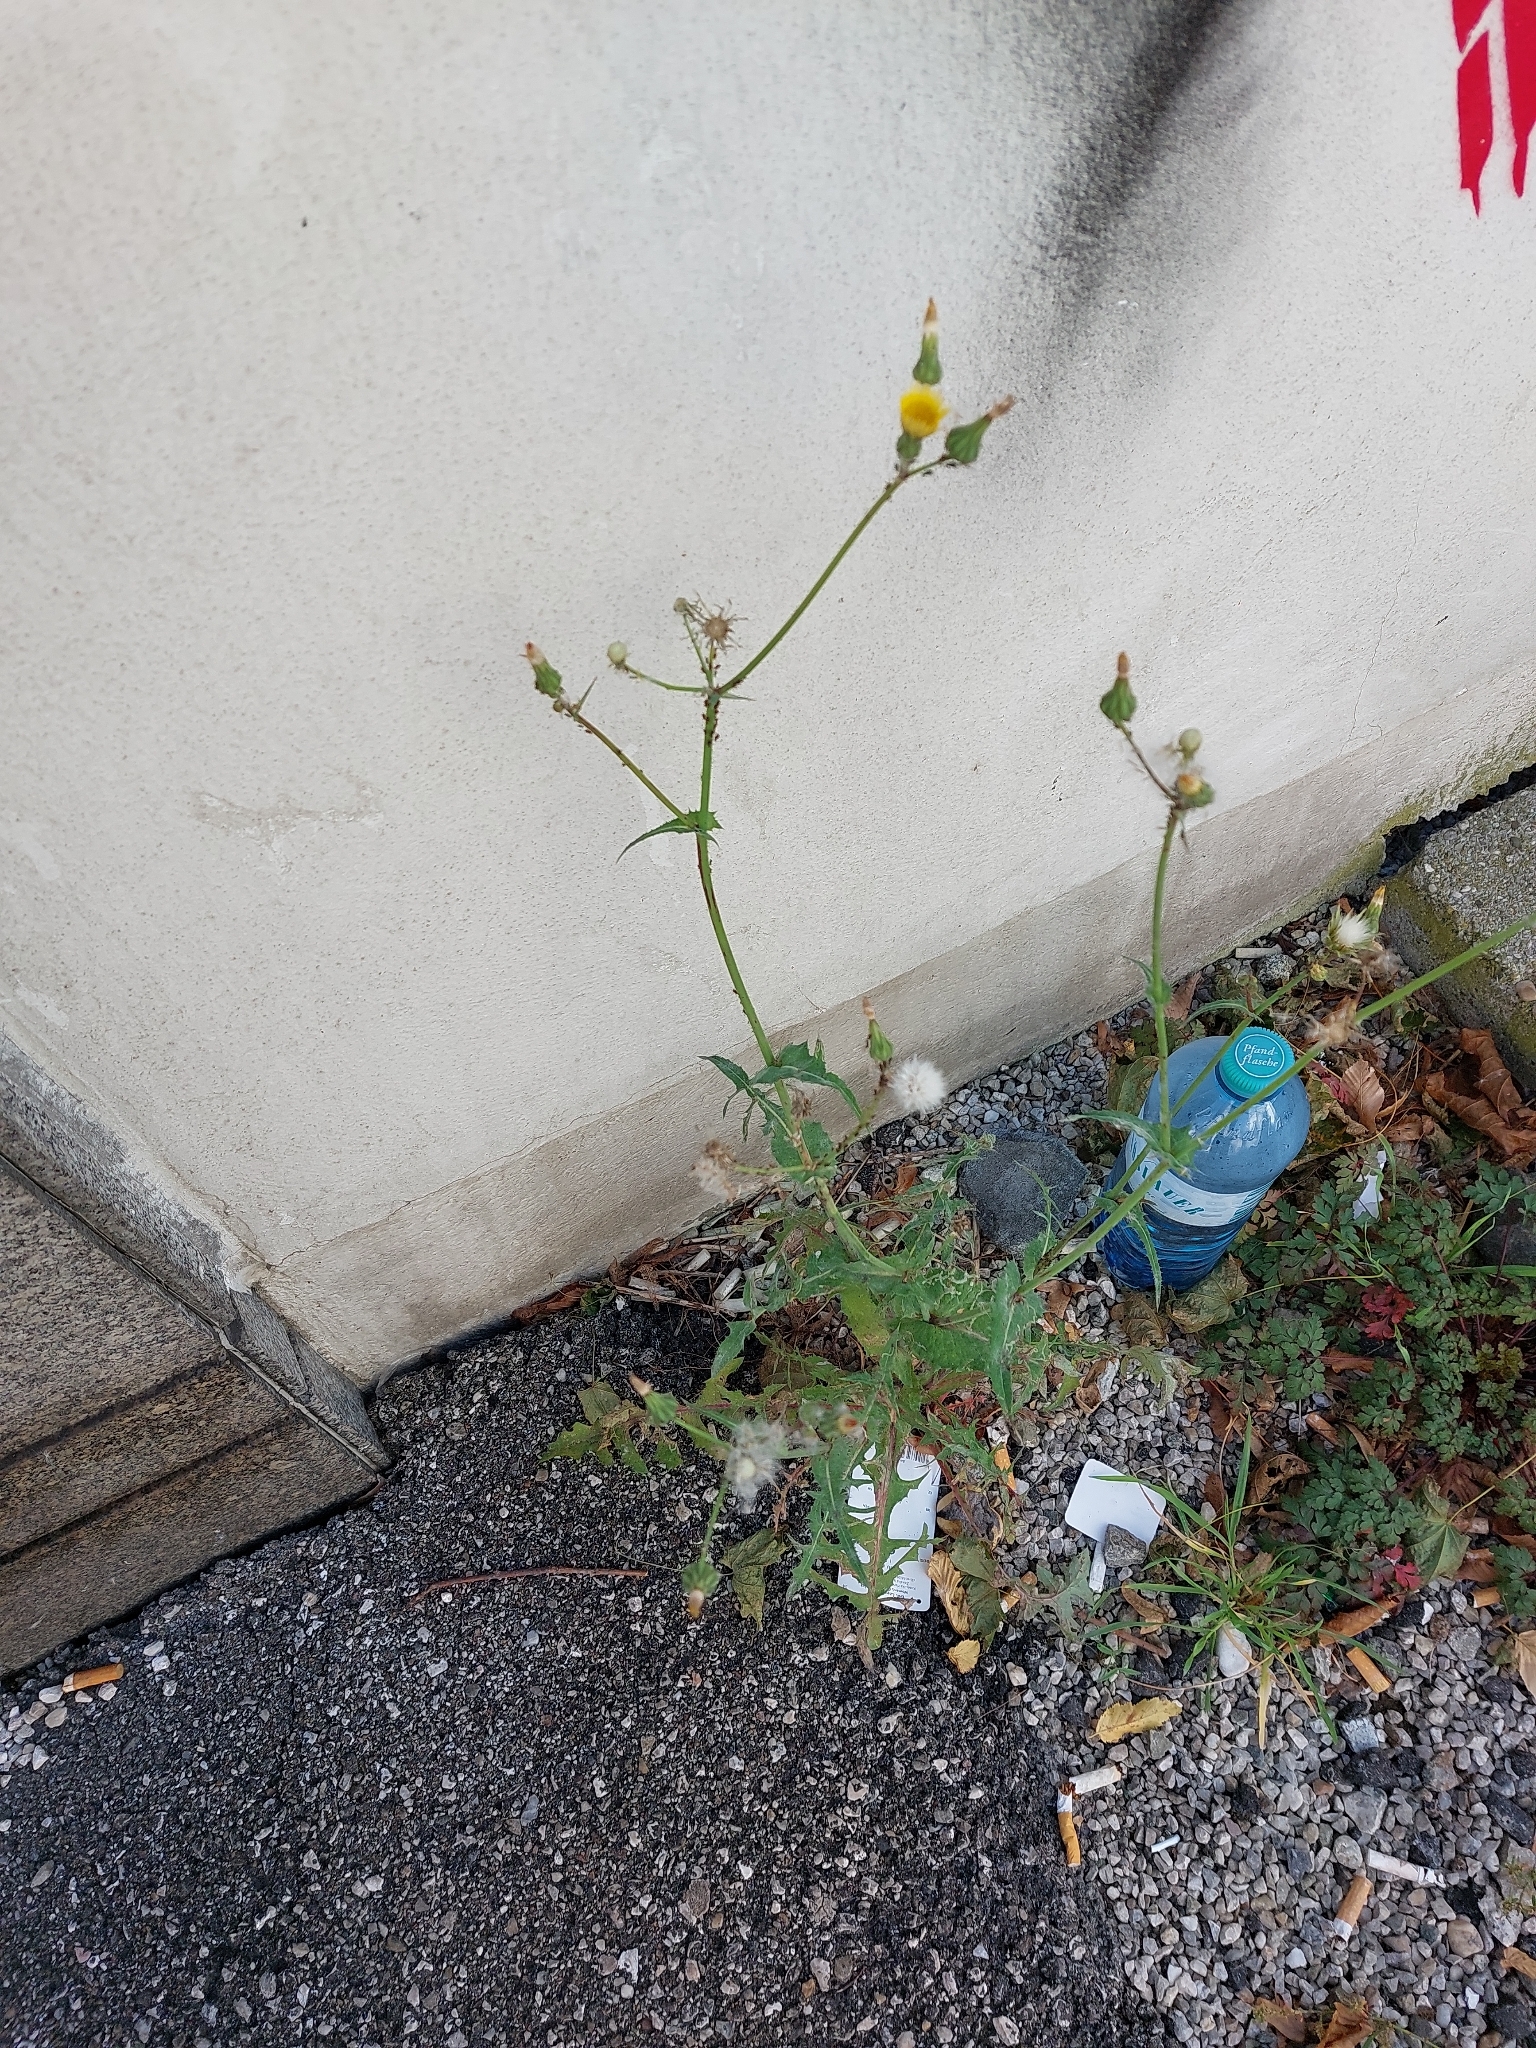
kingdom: Plantae
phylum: Tracheophyta
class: Magnoliopsida
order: Asterales
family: Asteraceae
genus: Sonchus
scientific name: Sonchus oleraceus
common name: Common sowthistle
